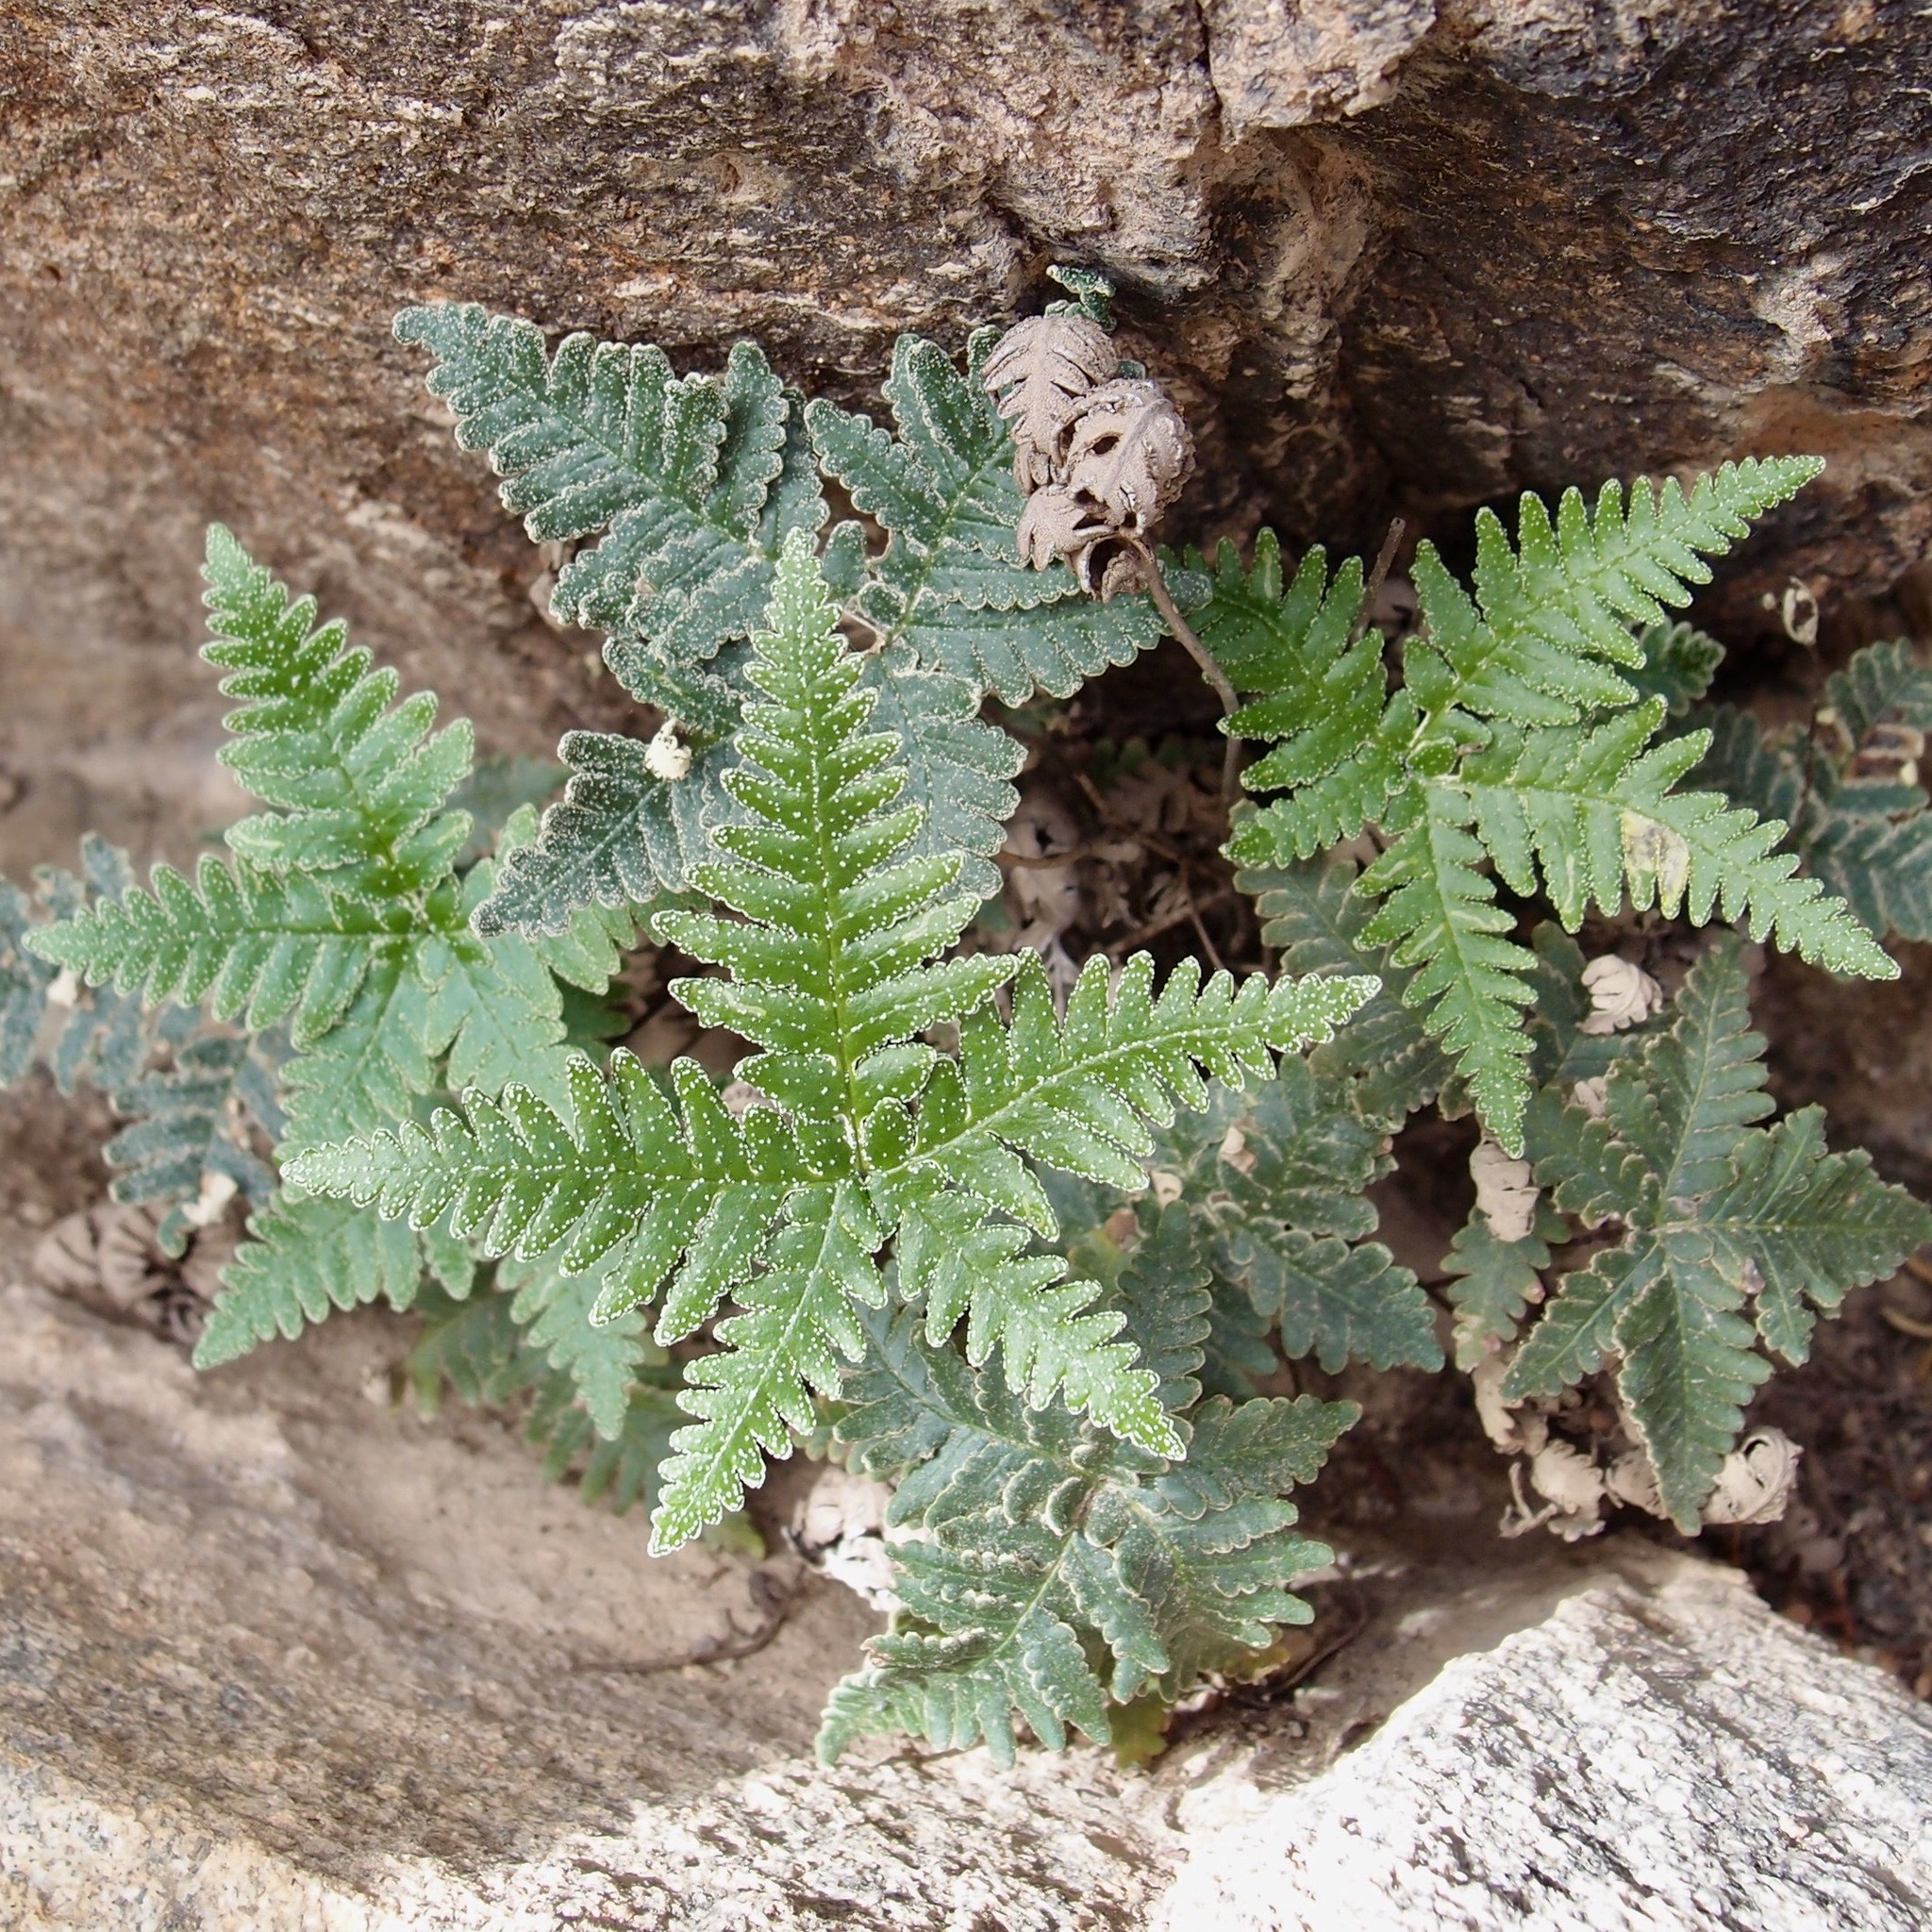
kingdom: Plantae
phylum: Tracheophyta
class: Polypodiopsida
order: Polypodiales
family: Pteridaceae
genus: Notholaena
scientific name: Notholaena standleyi
